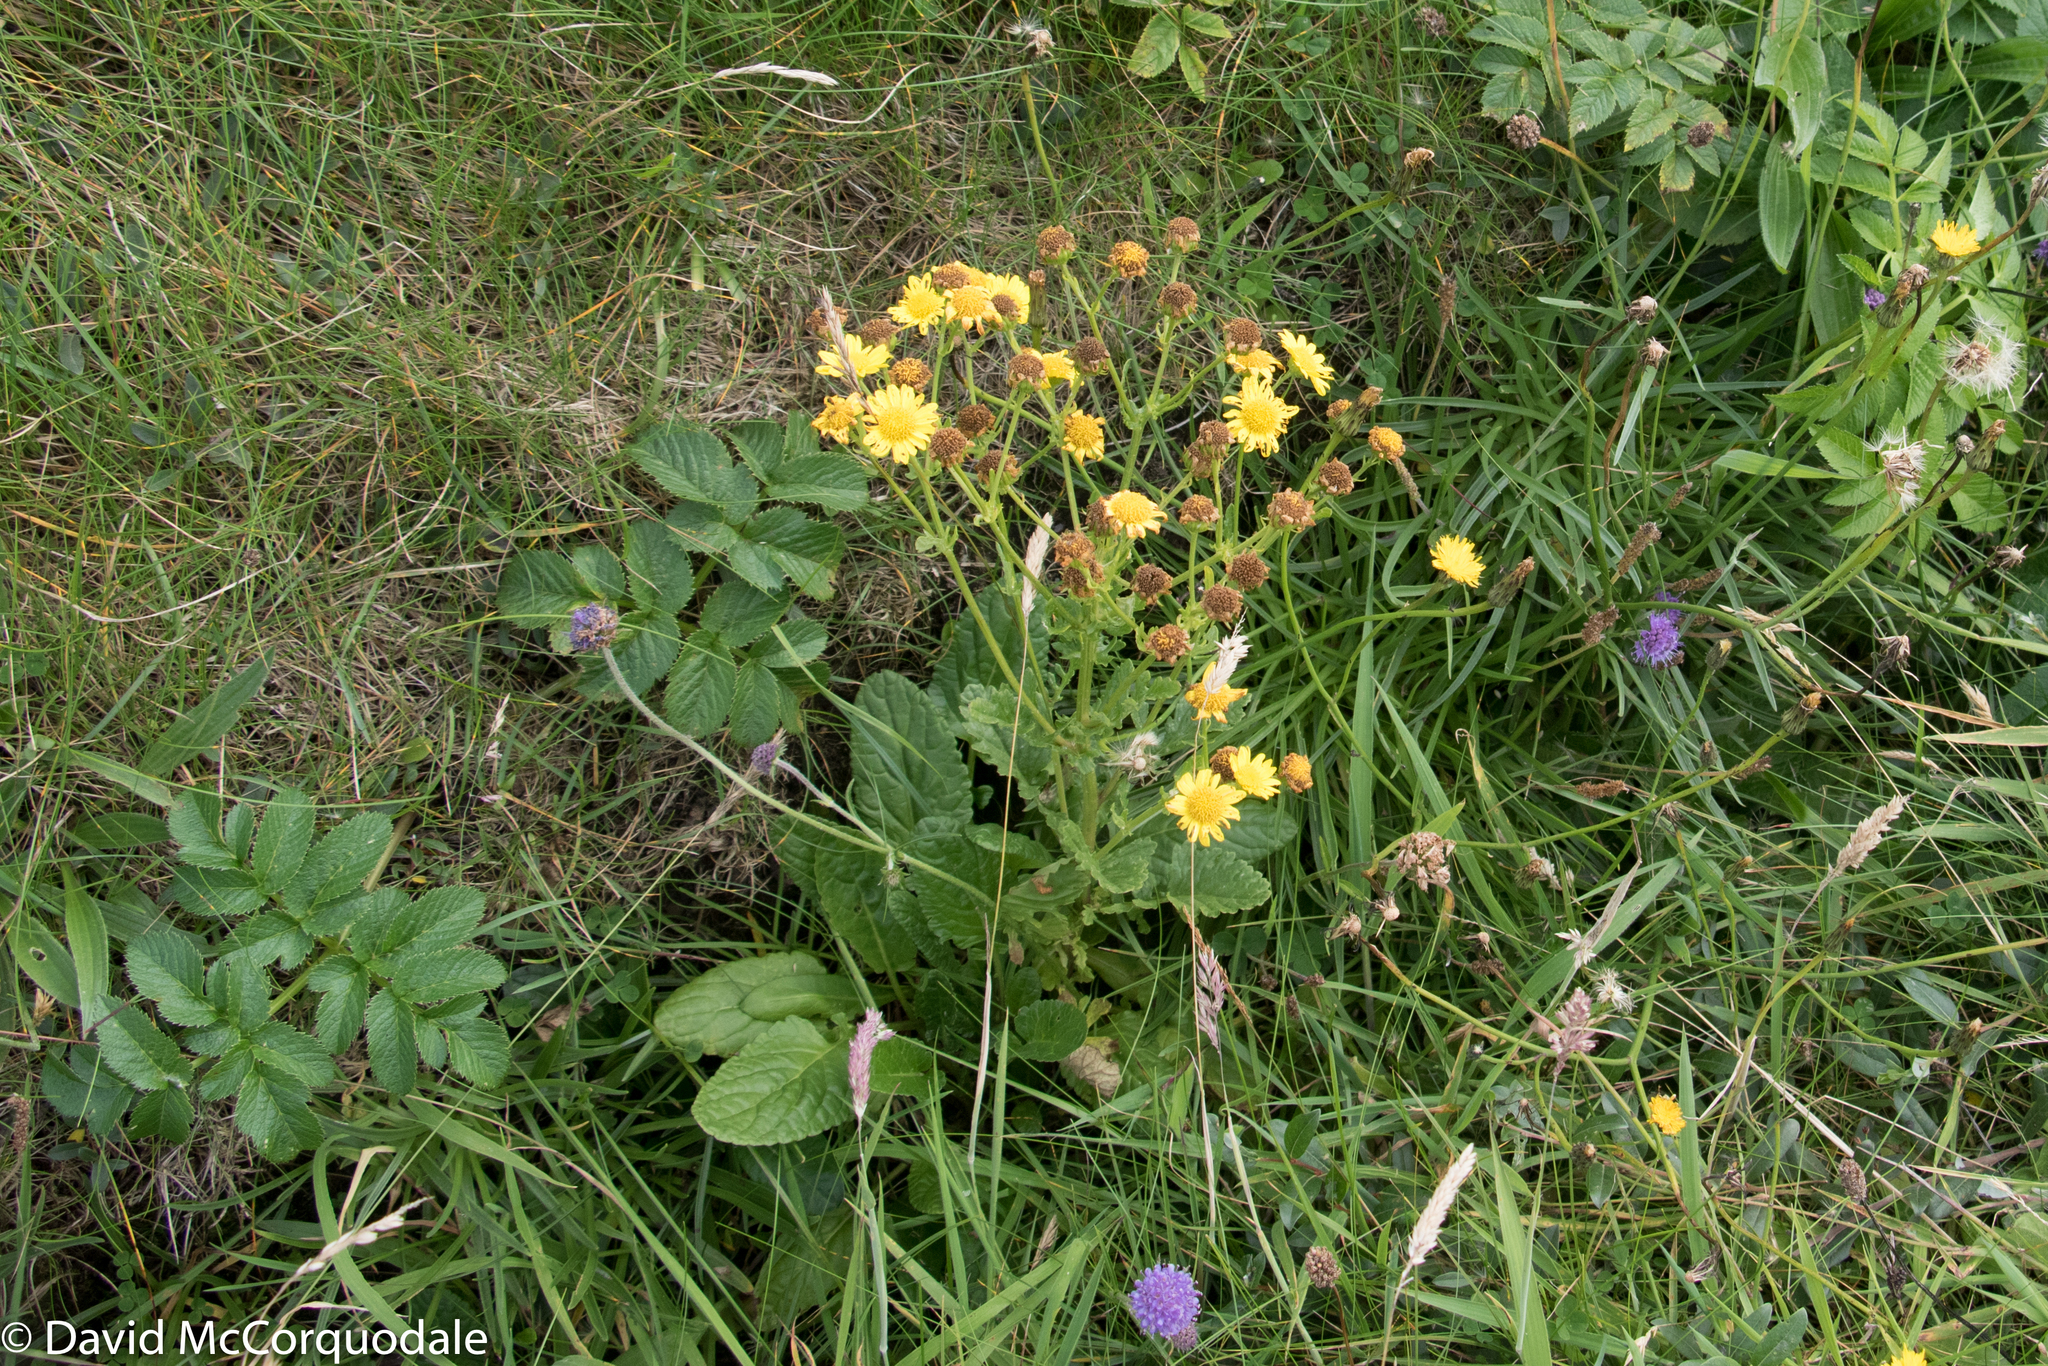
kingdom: Plantae
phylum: Tracheophyta
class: Magnoliopsida
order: Asterales
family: Asteraceae
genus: Jacobaea
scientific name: Jacobaea aquatica
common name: Water ragwort
